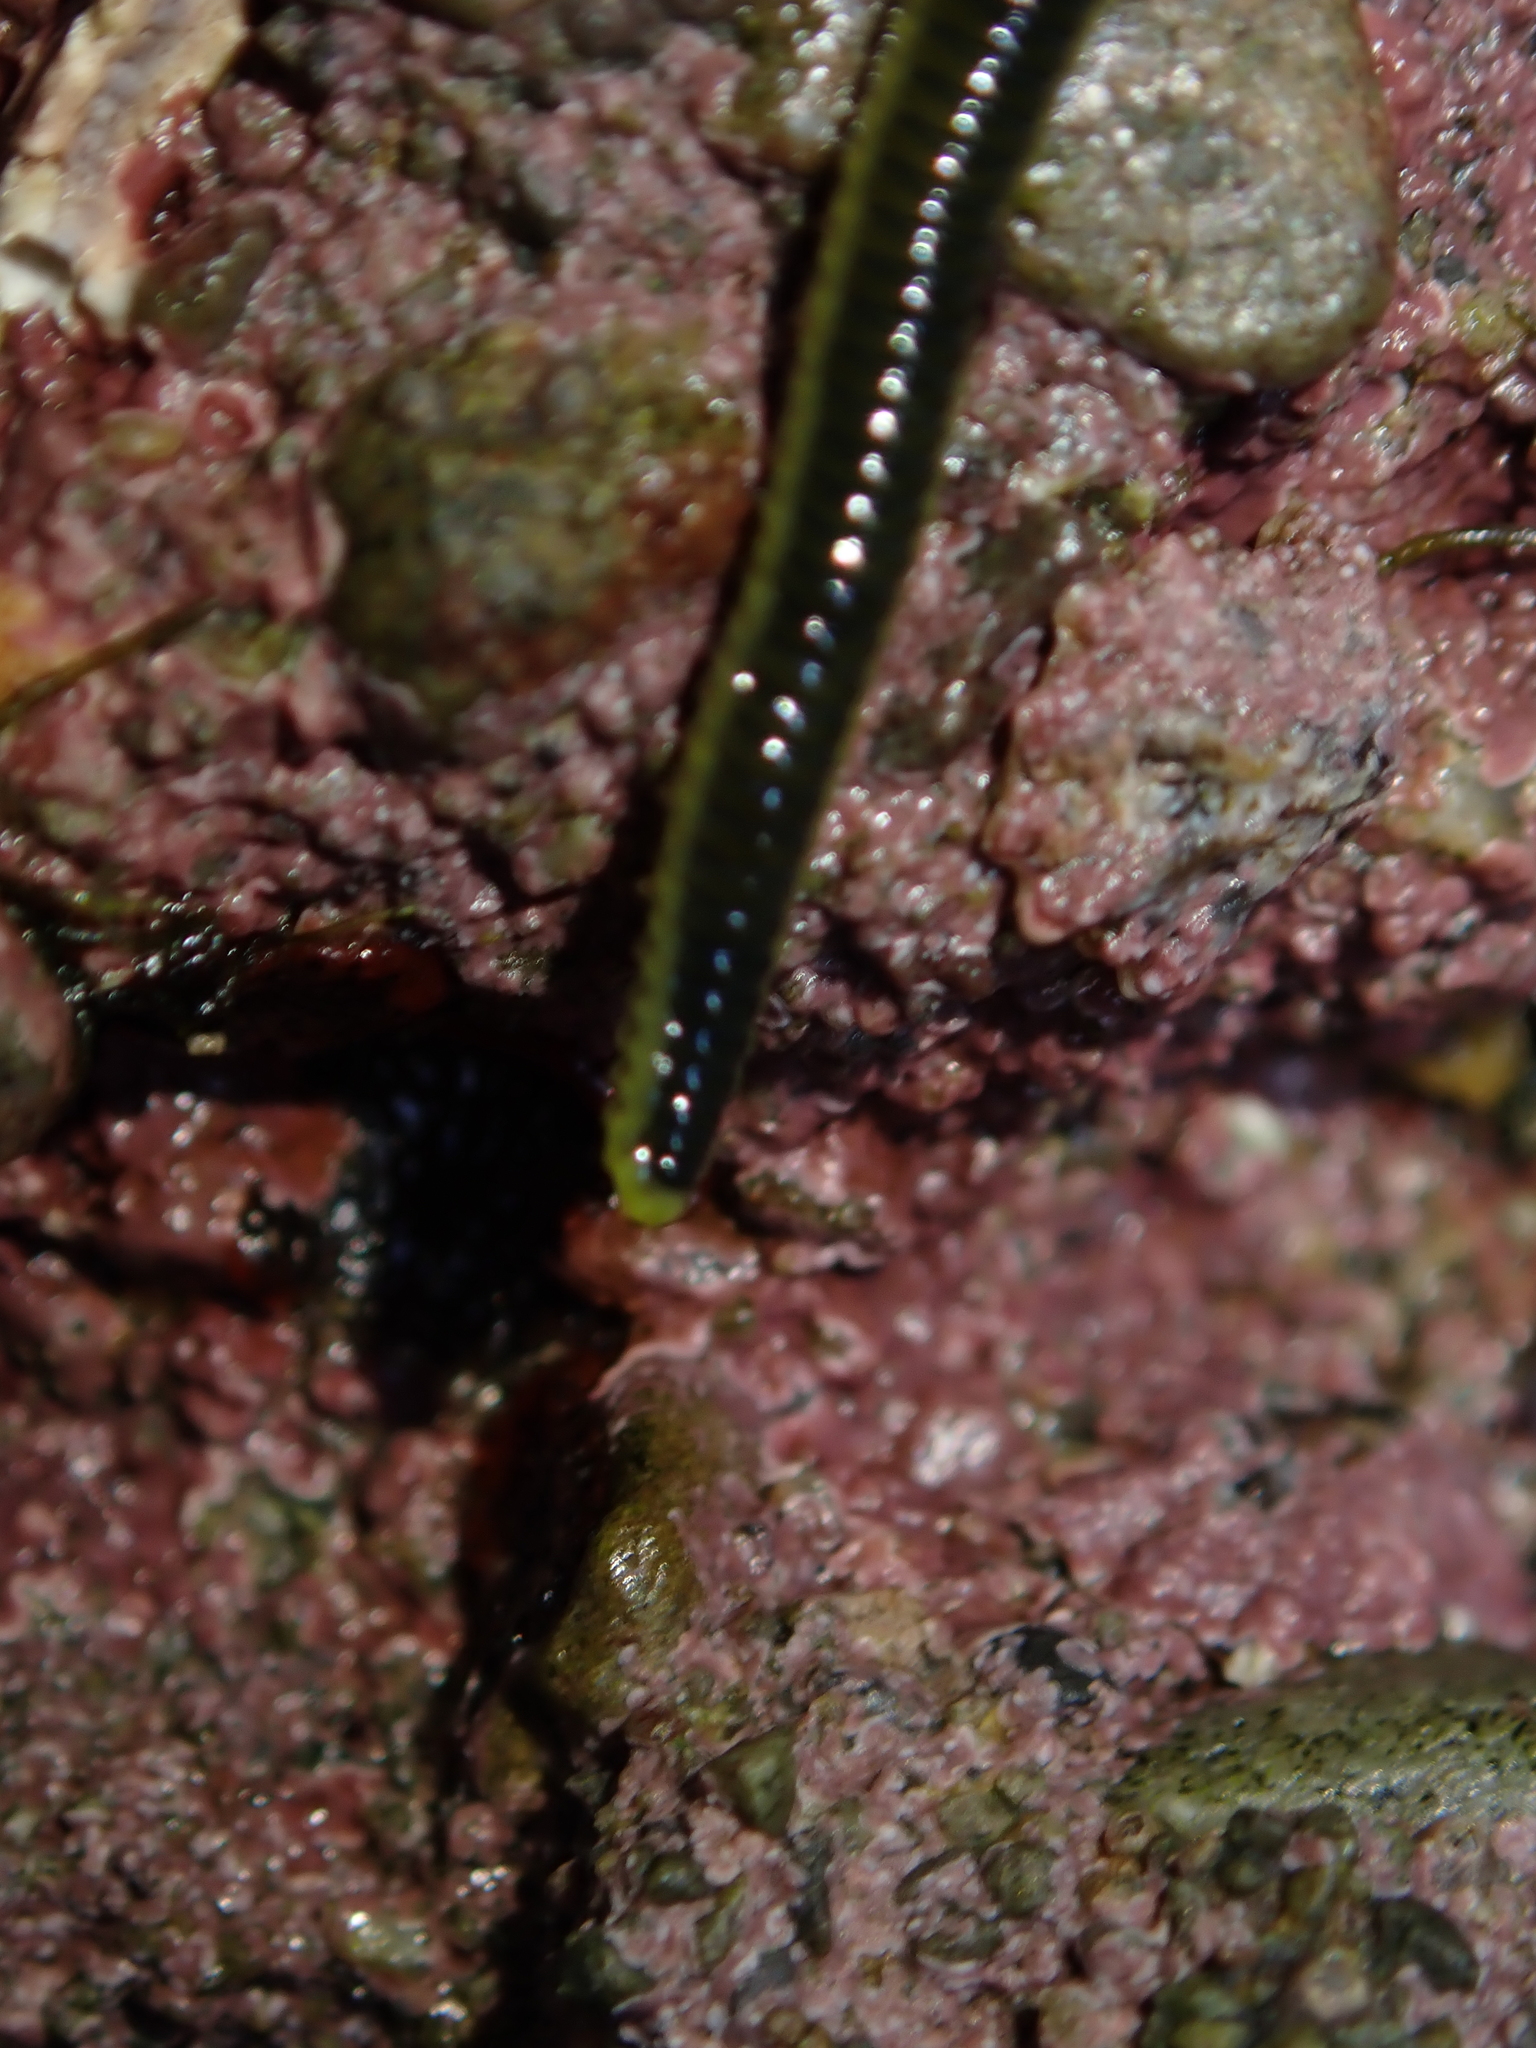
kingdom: Animalia
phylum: Annelida
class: Polychaeta
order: Phyllodocida
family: Phyllodocidae
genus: Eulalia
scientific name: Eulalia microphylla
